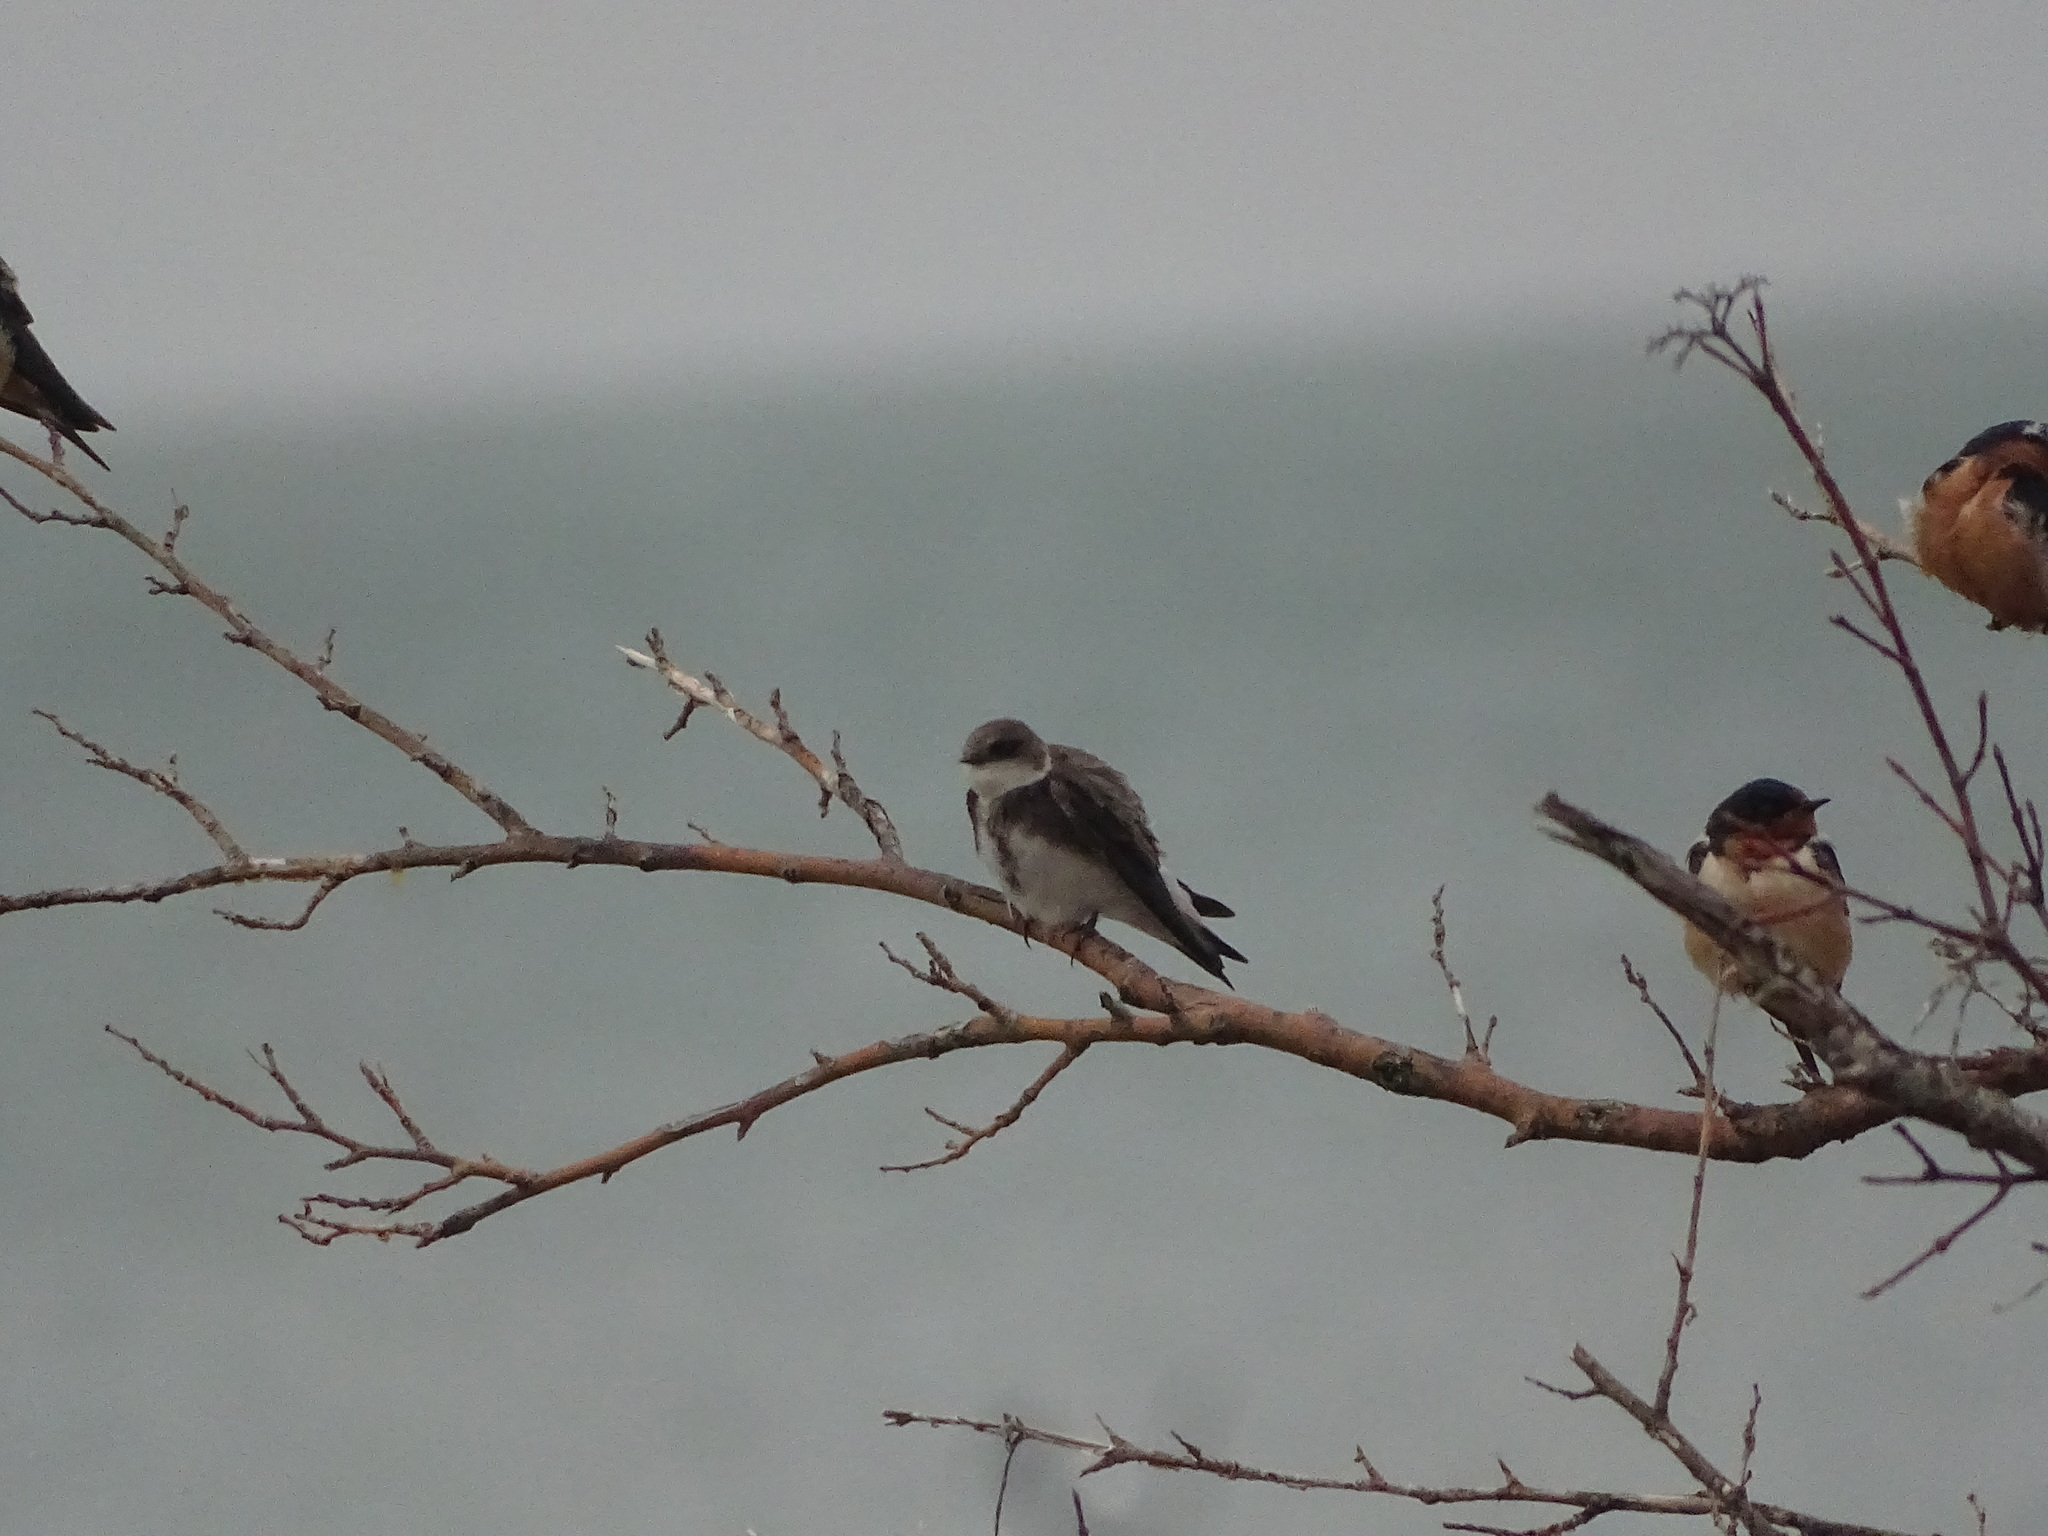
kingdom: Animalia
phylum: Chordata
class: Aves
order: Passeriformes
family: Hirundinidae
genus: Riparia
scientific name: Riparia riparia
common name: Sand martin
